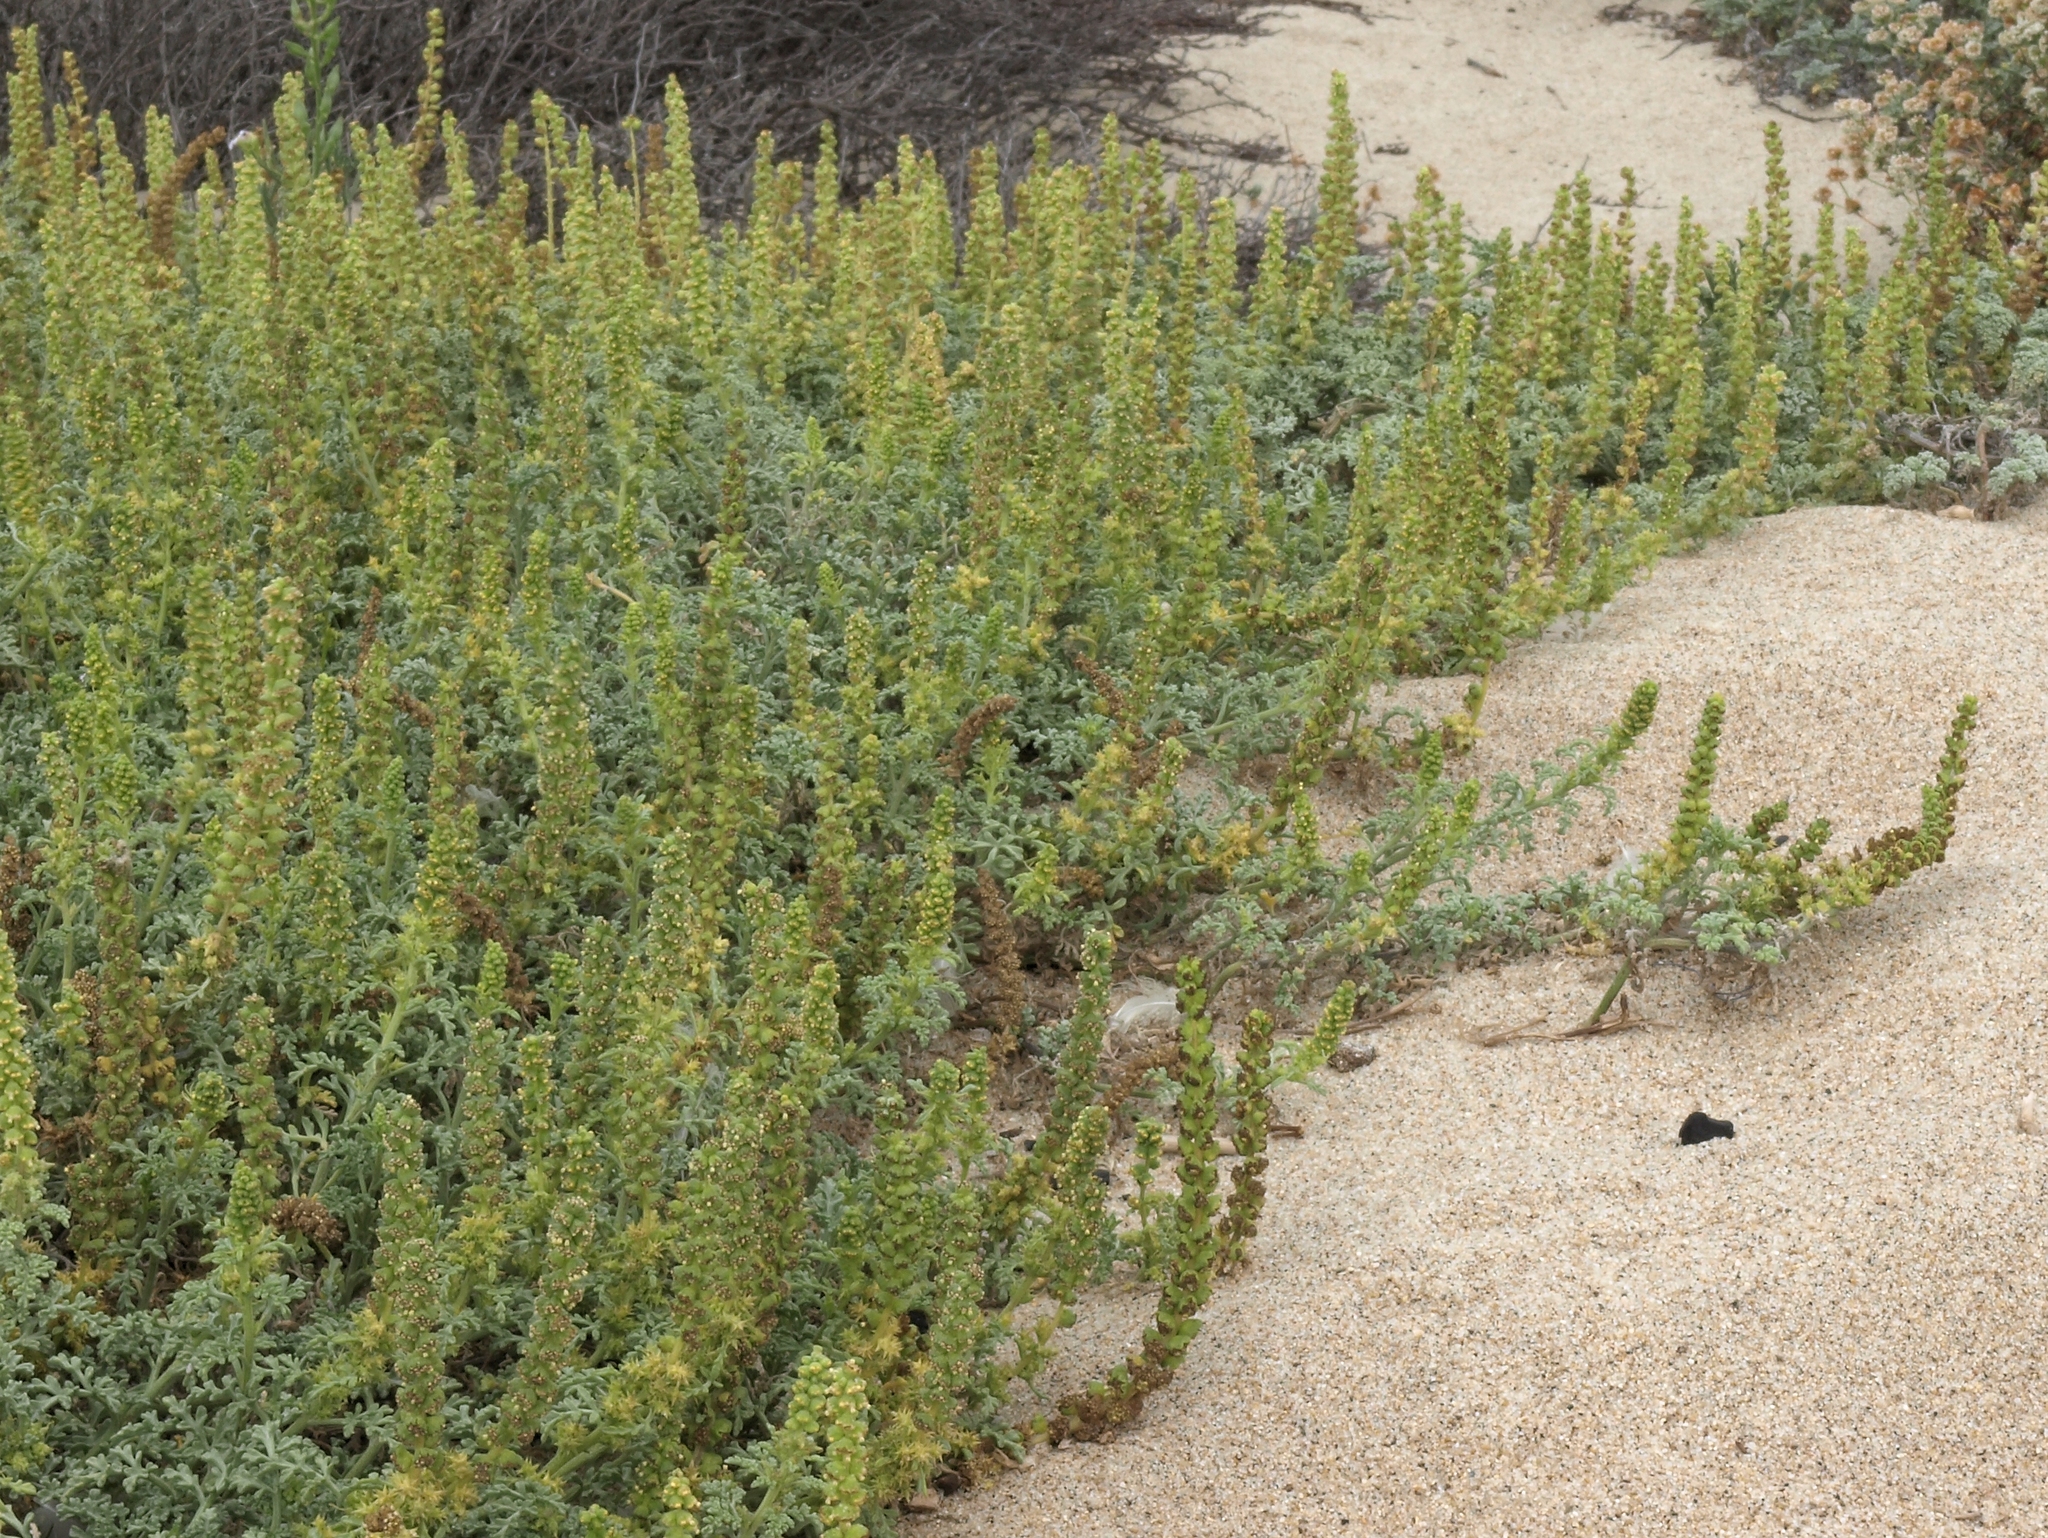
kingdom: Plantae
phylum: Tracheophyta
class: Magnoliopsida
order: Asterales
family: Asteraceae
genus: Ambrosia
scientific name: Ambrosia chamissonis
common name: Beachbur
